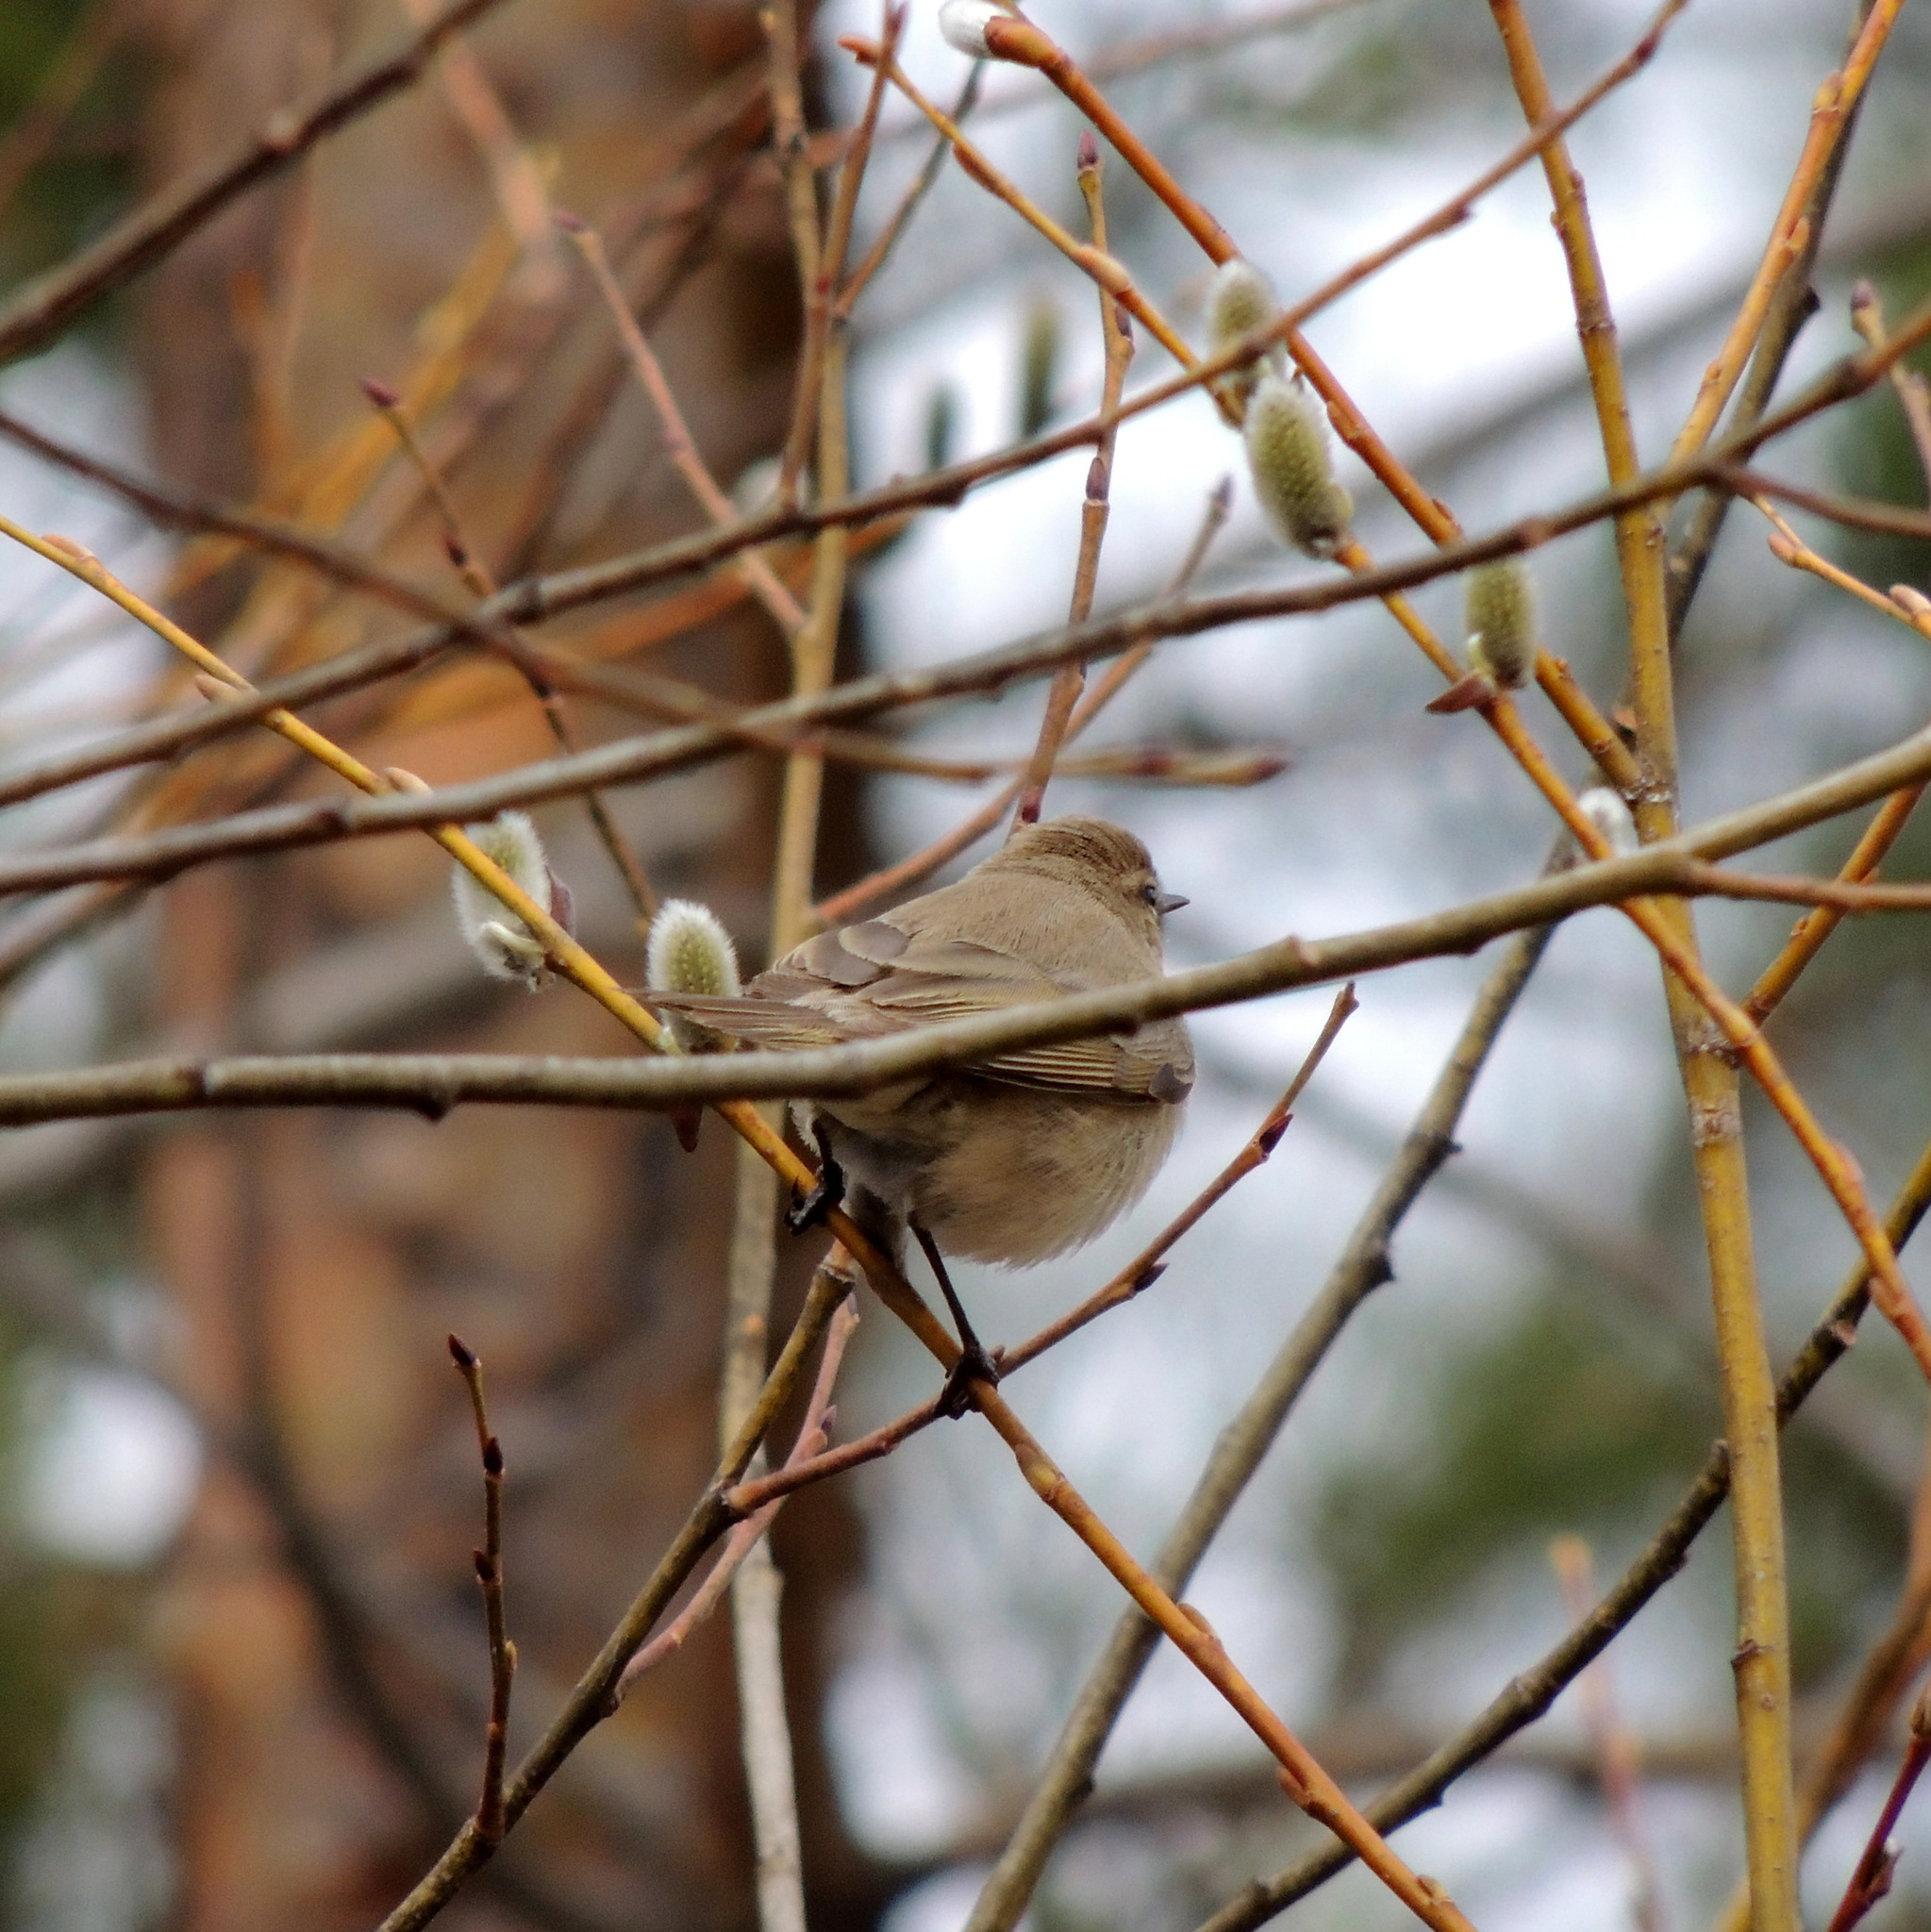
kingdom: Animalia
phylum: Chordata
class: Aves
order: Passeriformes
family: Phylloscopidae
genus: Phylloscopus
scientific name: Phylloscopus collybita
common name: Common chiffchaff
